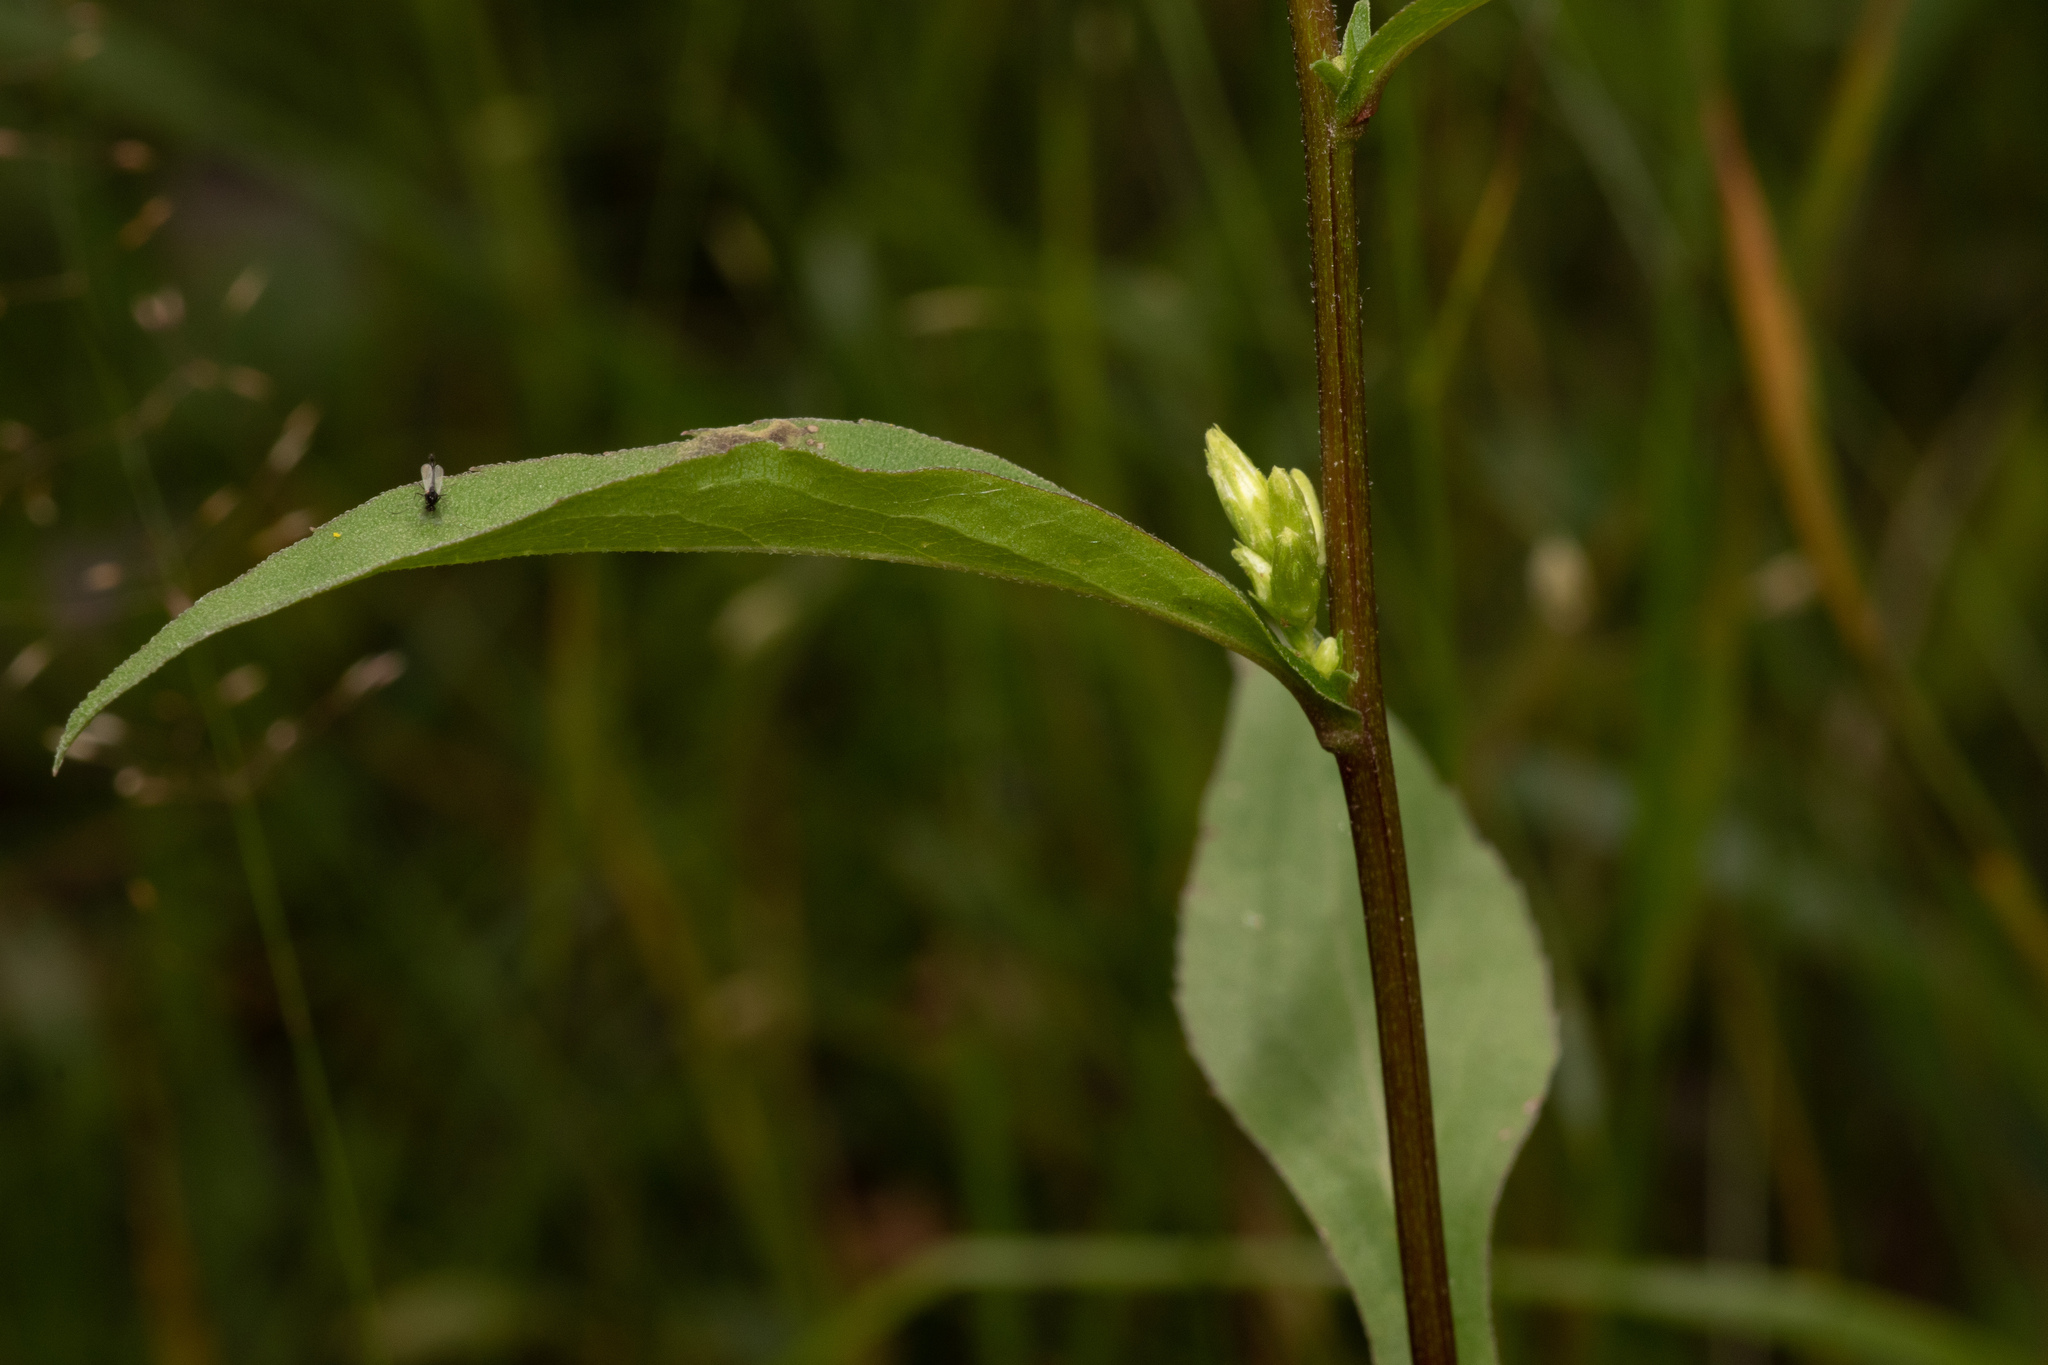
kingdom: Plantae
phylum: Tracheophyta
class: Magnoliopsida
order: Asterales
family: Asteraceae
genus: Solidago
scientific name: Solidago virgaurea
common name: Goldenrod
